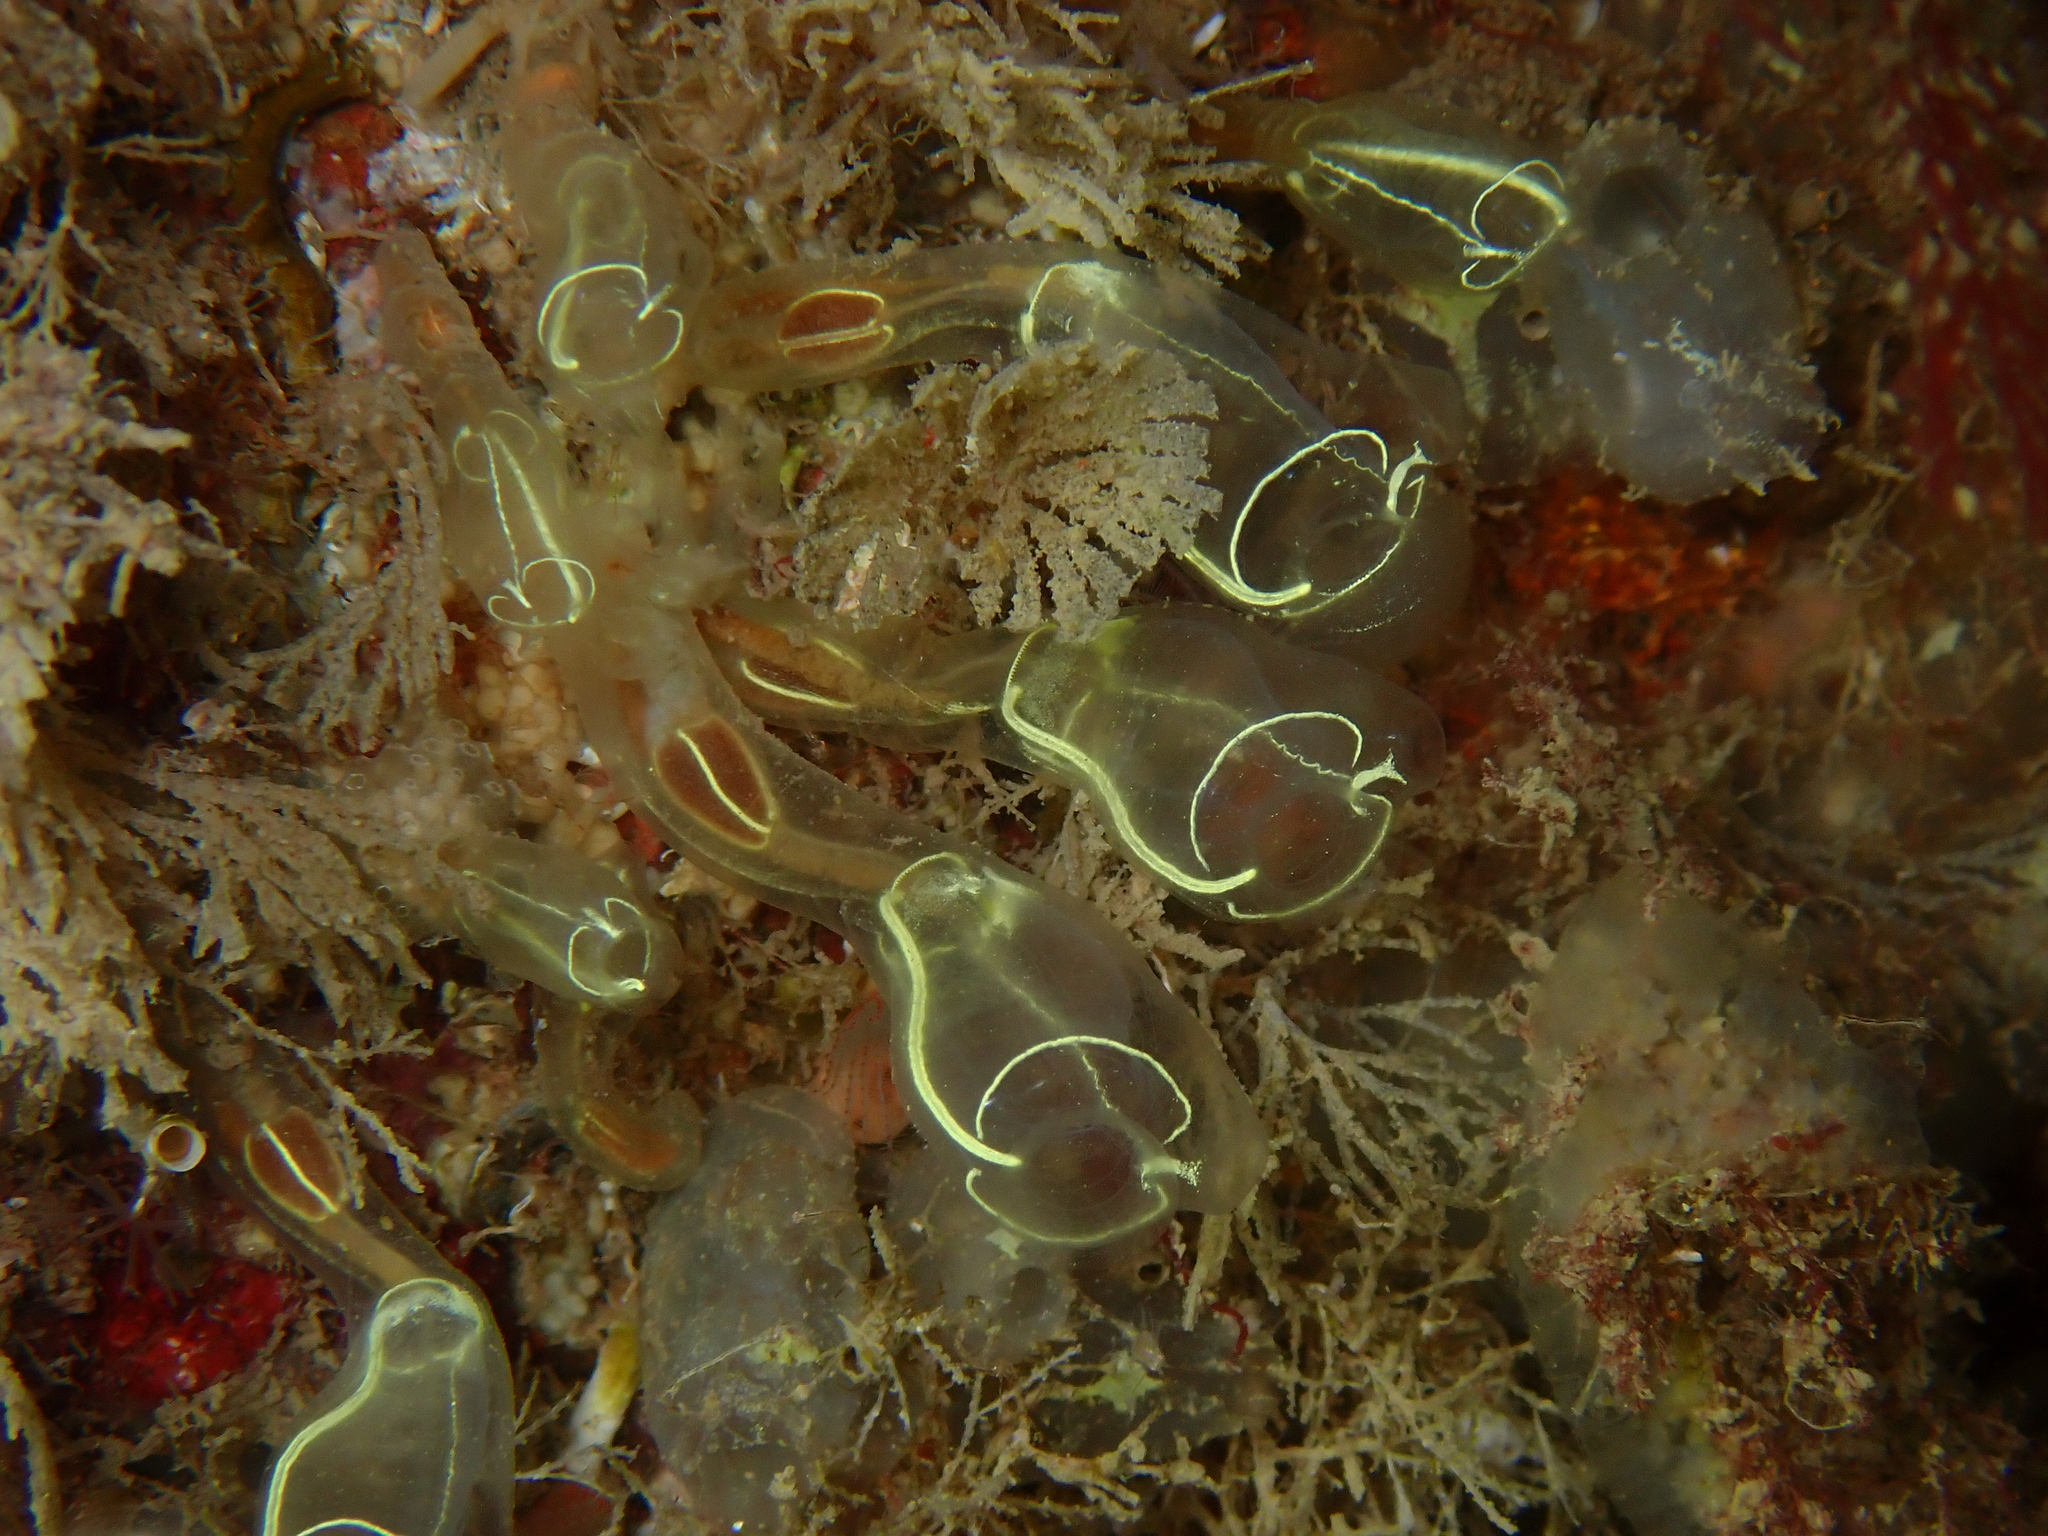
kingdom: Animalia
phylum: Chordata
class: Ascidiacea
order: Aplousobranchia
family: Clavelinidae
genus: Clavelina
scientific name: Clavelina lepadiformis
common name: Light bulb tunicate
